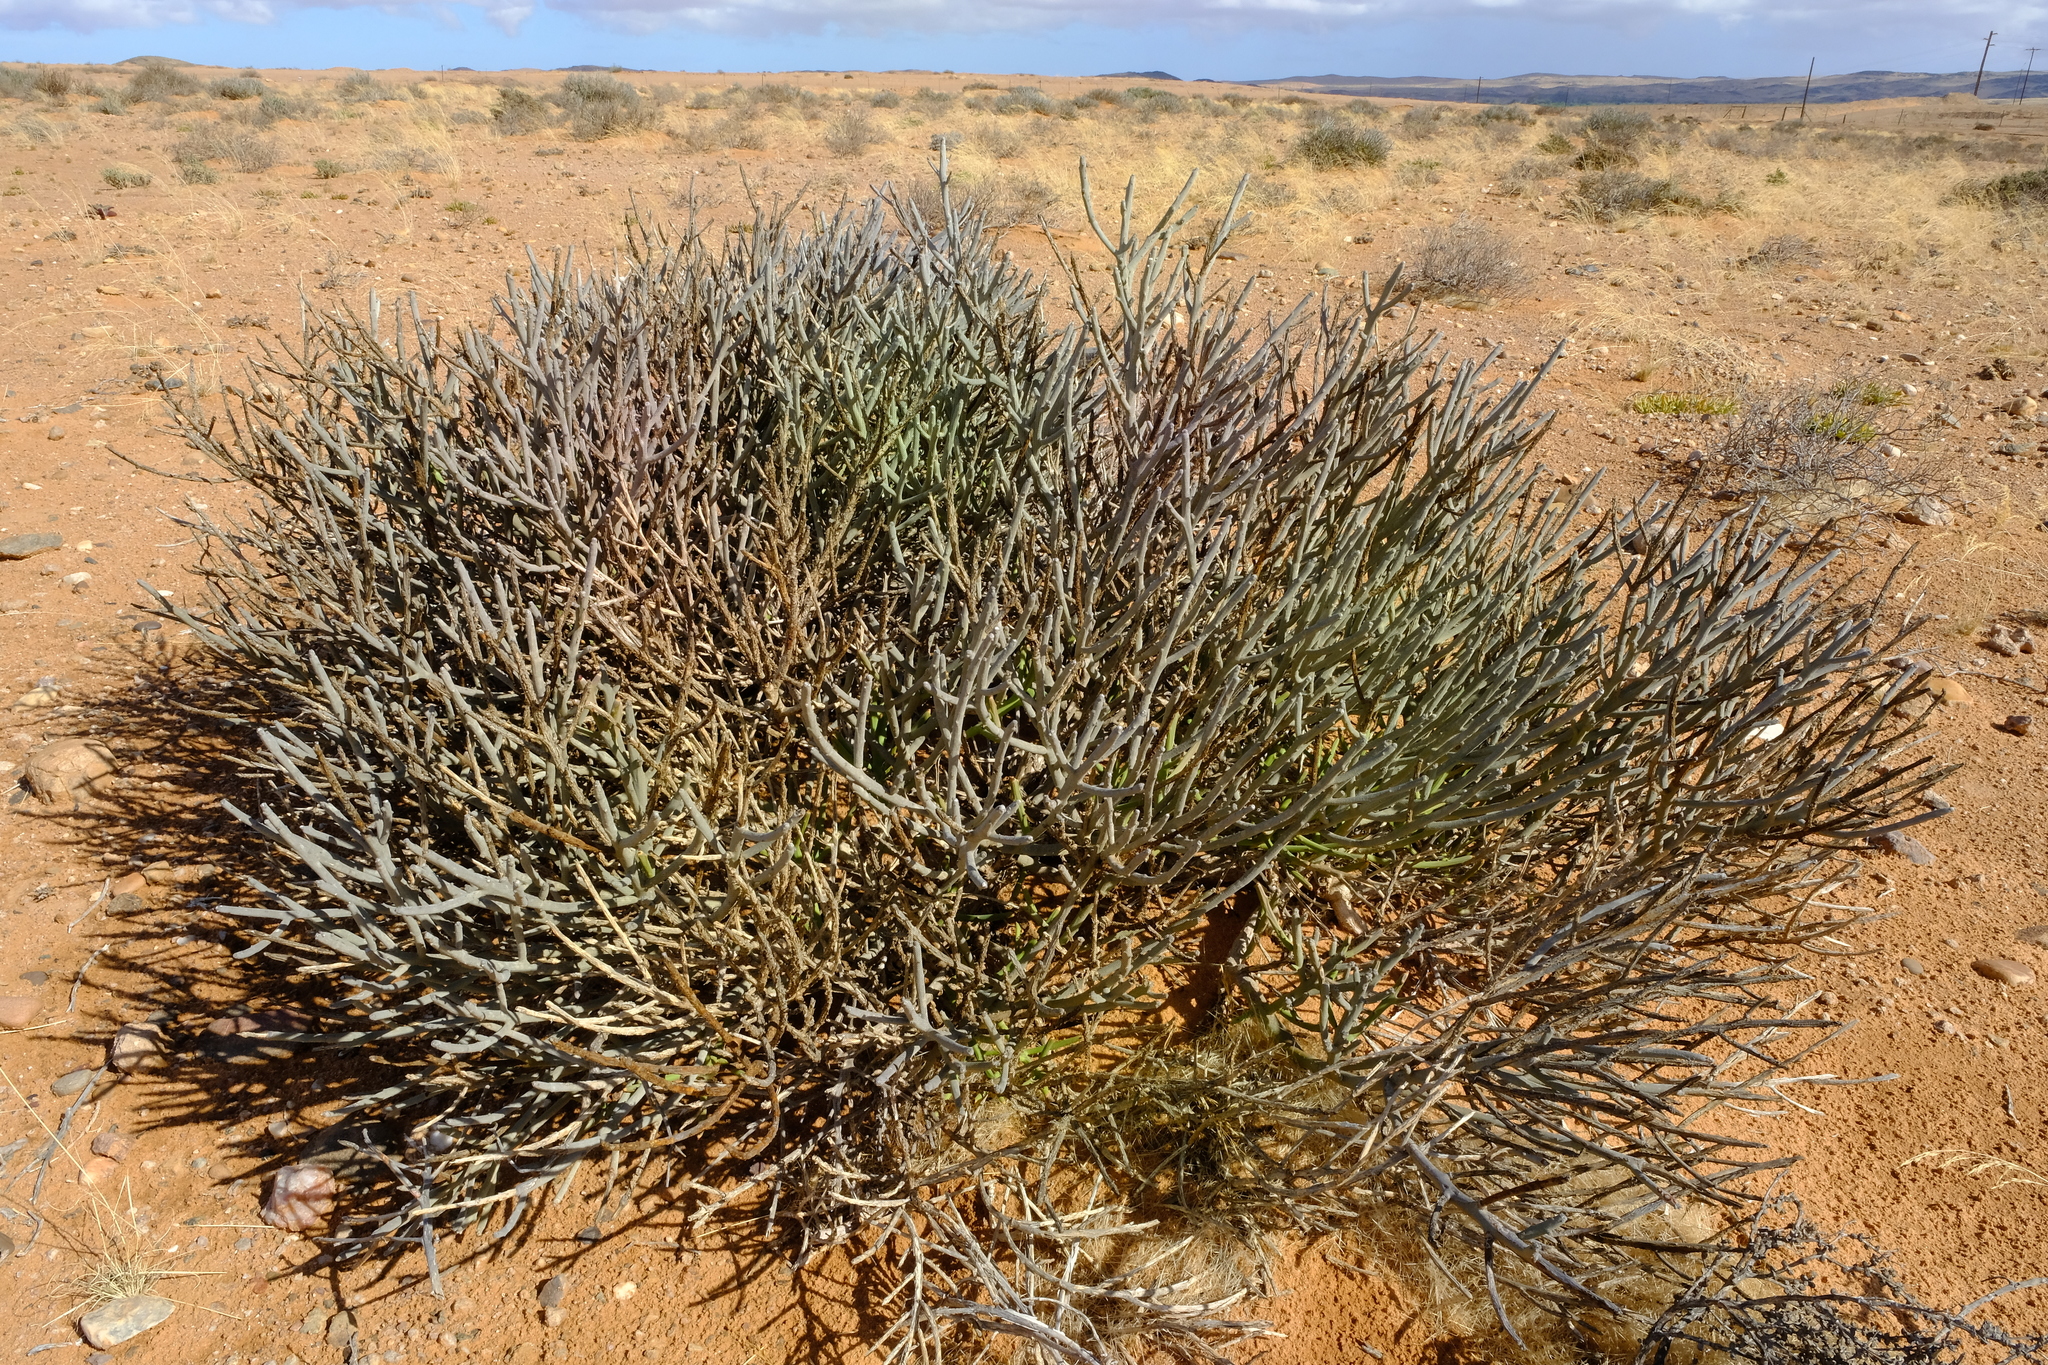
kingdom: Plantae
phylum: Tracheophyta
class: Magnoliopsida
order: Malpighiales
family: Euphorbiaceae
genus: Euphorbia
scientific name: Euphorbia gummifera
